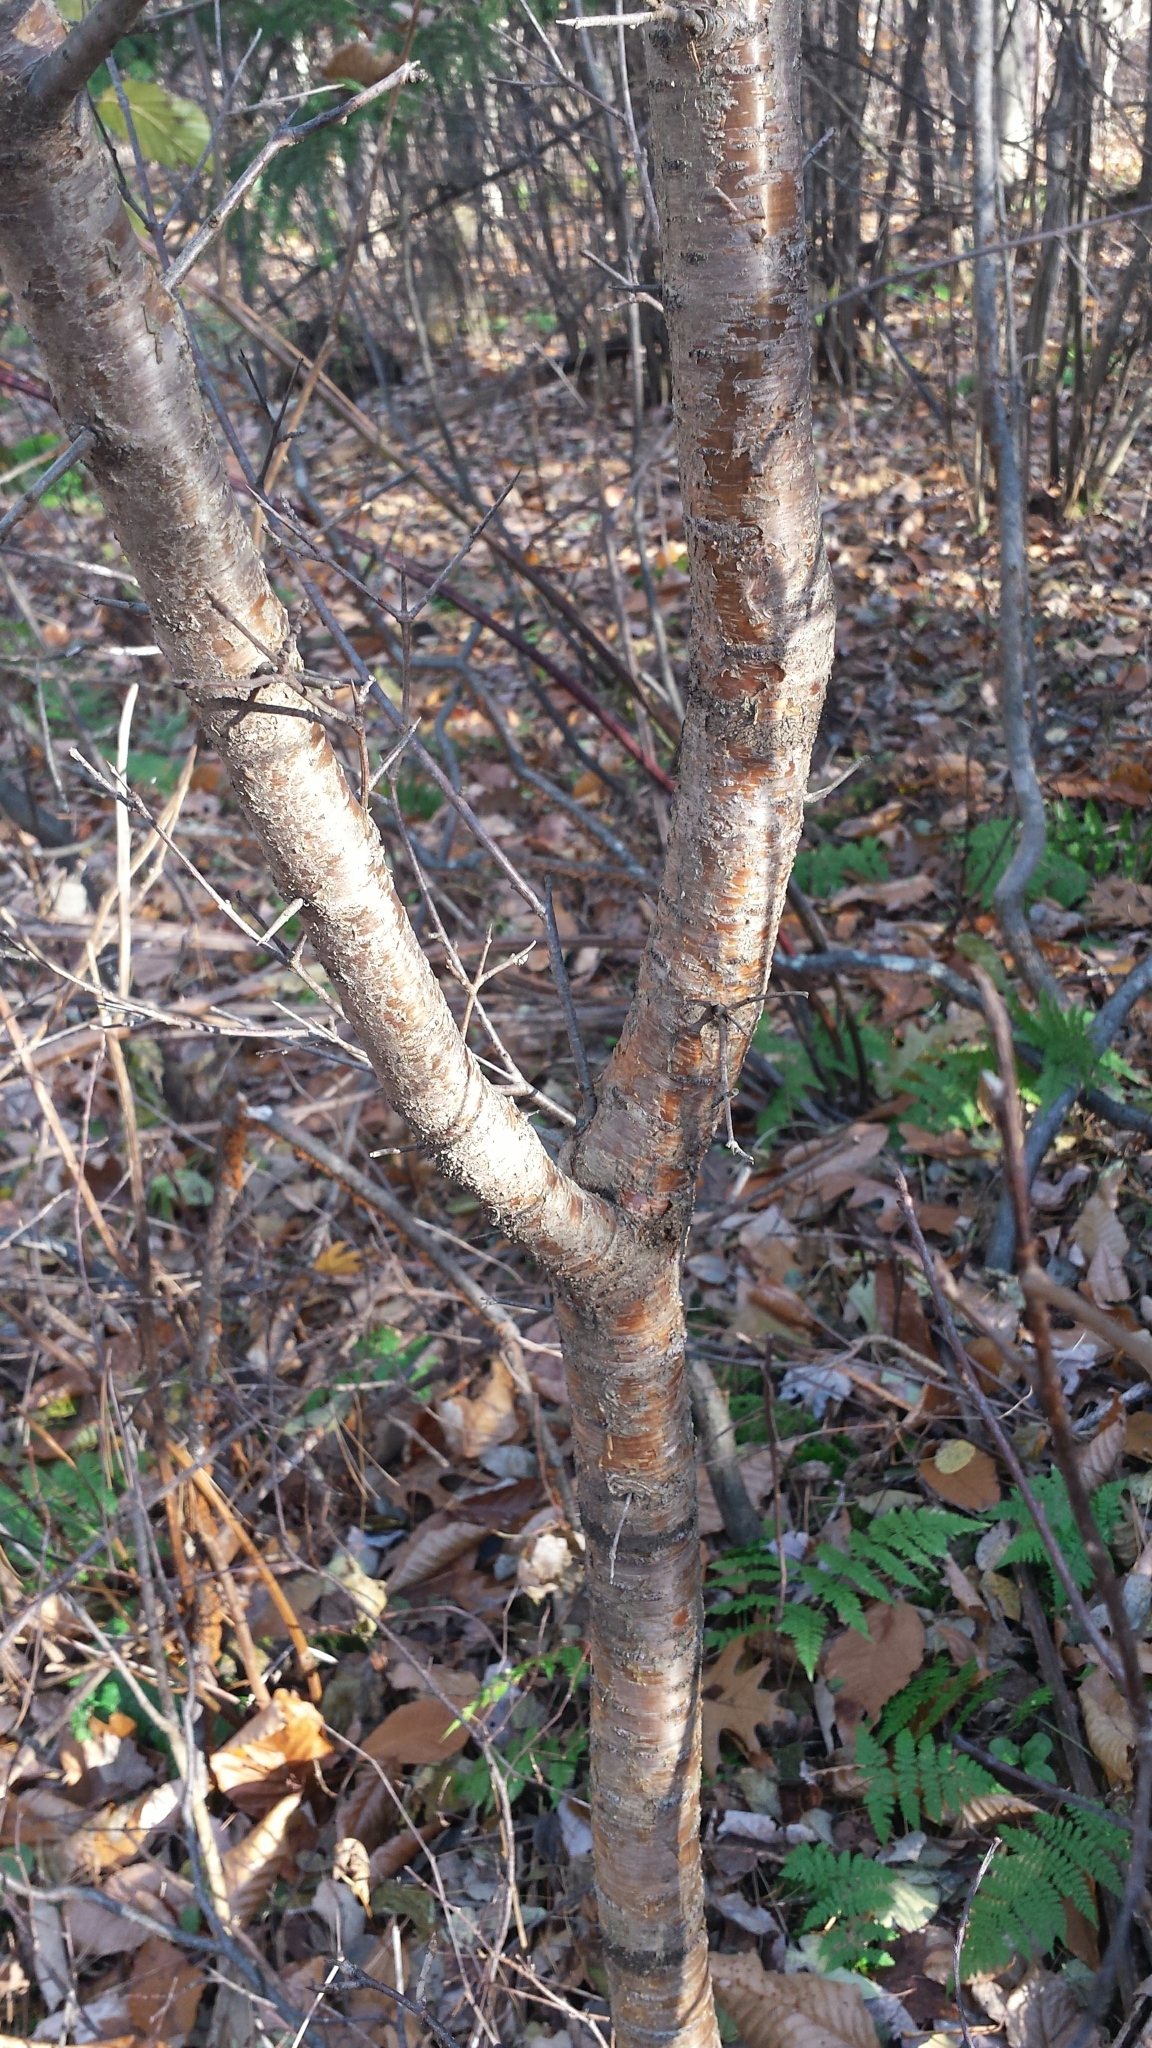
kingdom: Plantae
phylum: Tracheophyta
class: Magnoliopsida
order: Rosales
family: Rhamnaceae
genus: Rhamnus
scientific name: Rhamnus cathartica
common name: Common buckthorn
